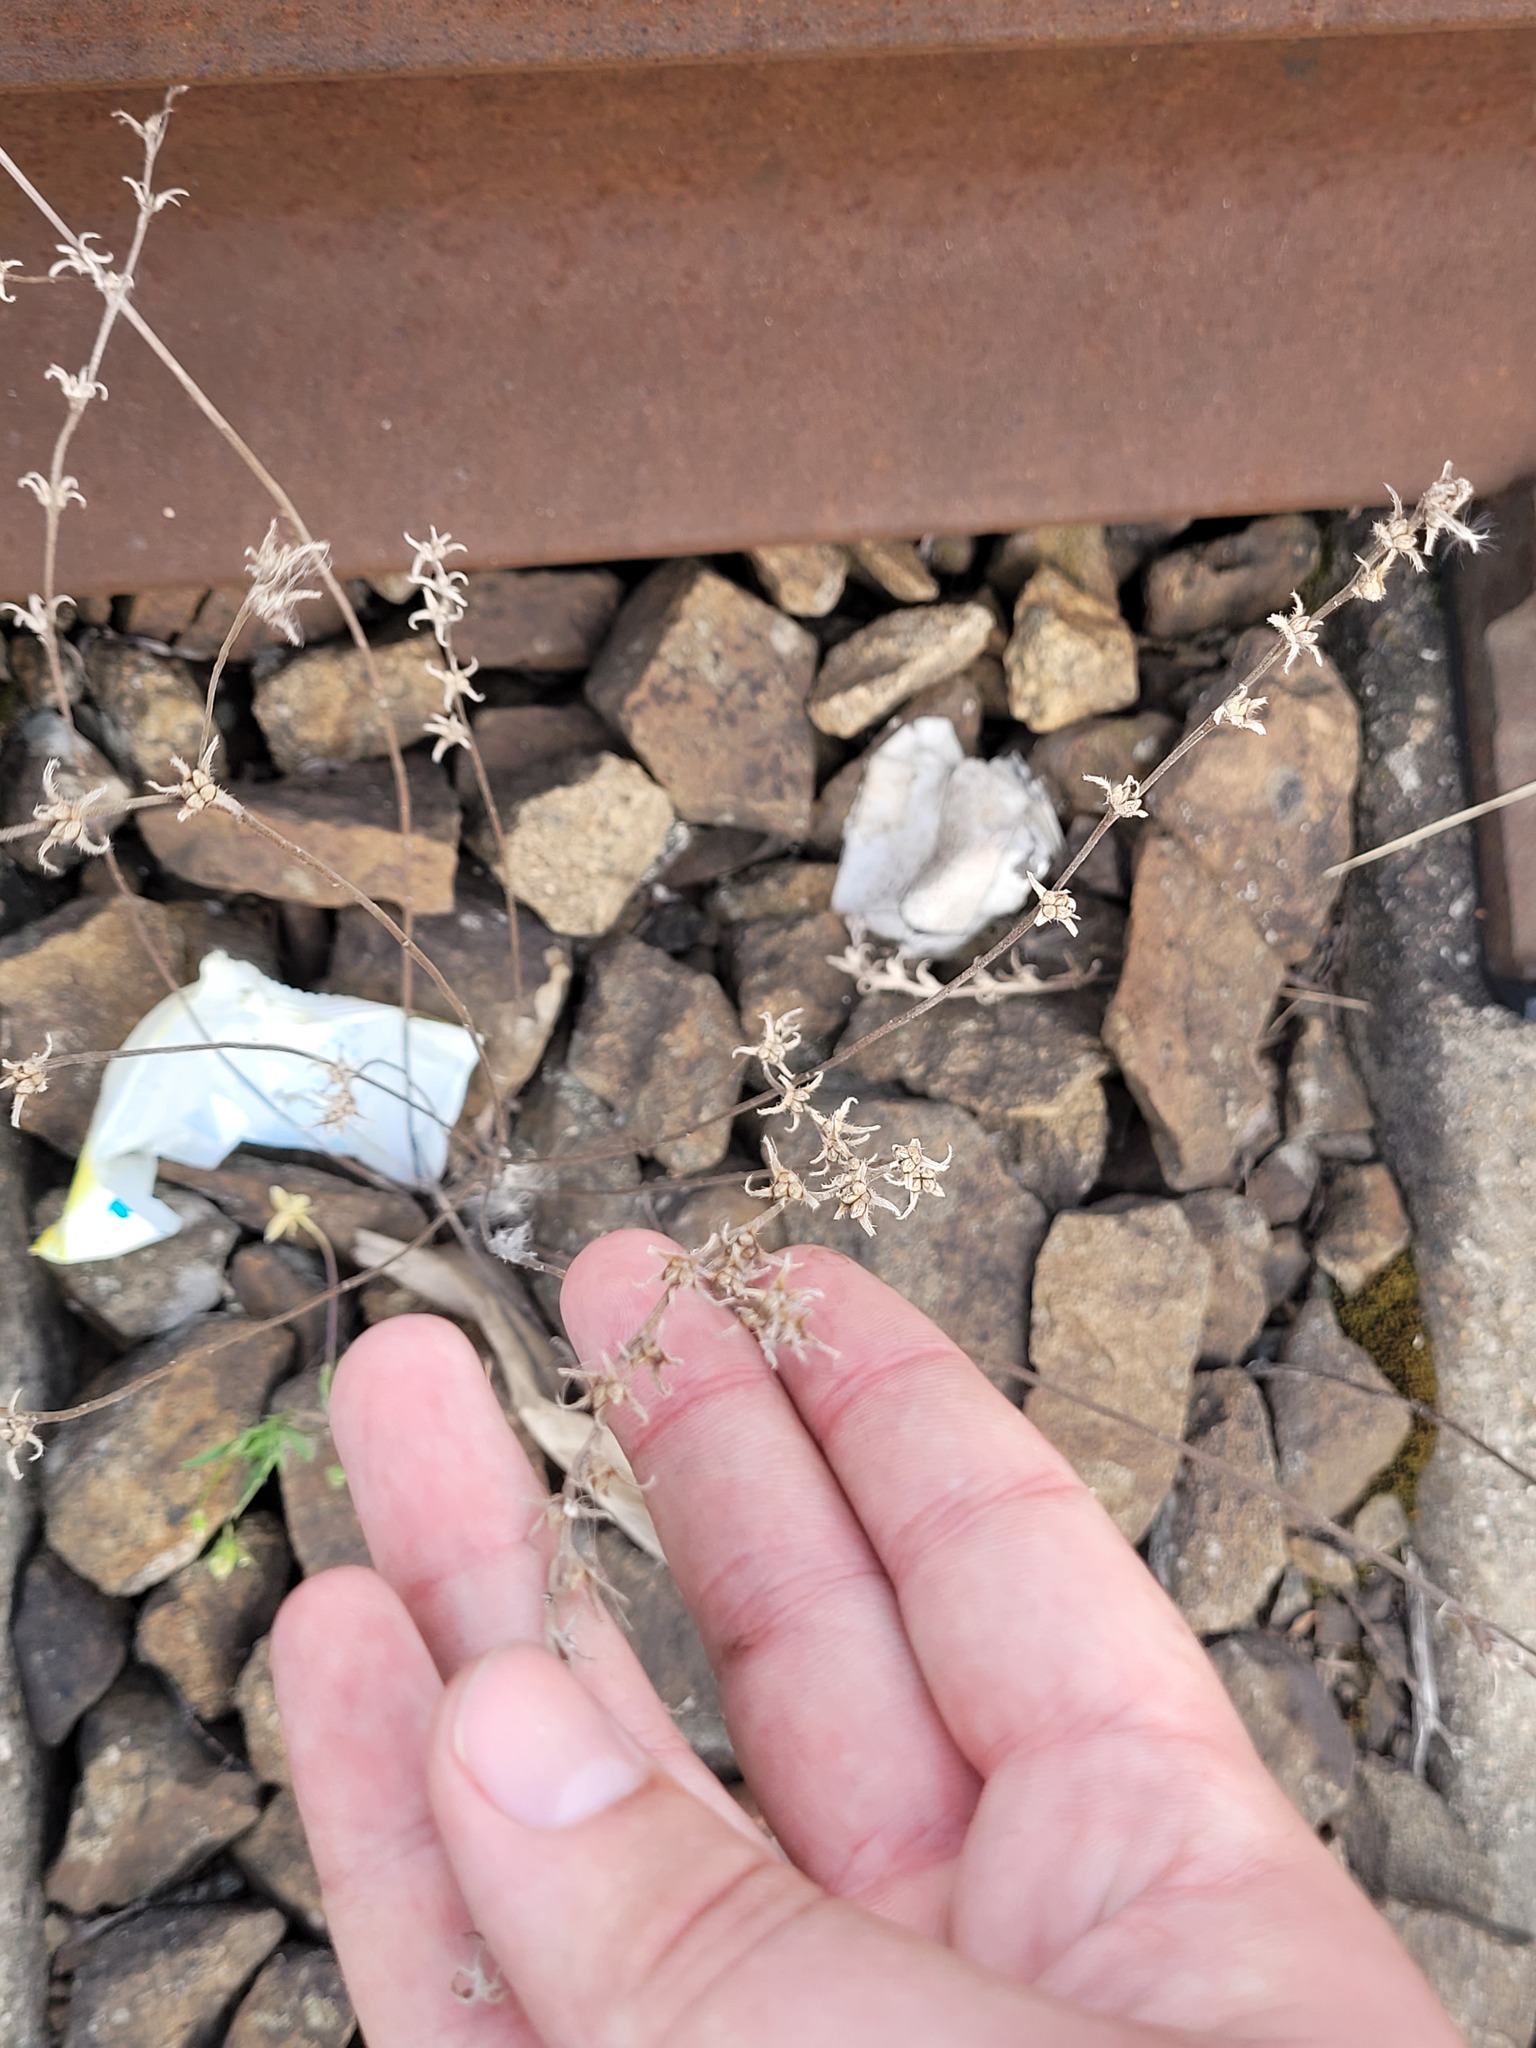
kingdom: Plantae
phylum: Tracheophyta
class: Magnoliopsida
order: Boraginales
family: Boraginaceae
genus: Buglossoides
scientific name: Buglossoides arvensis
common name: Corn gromwell
